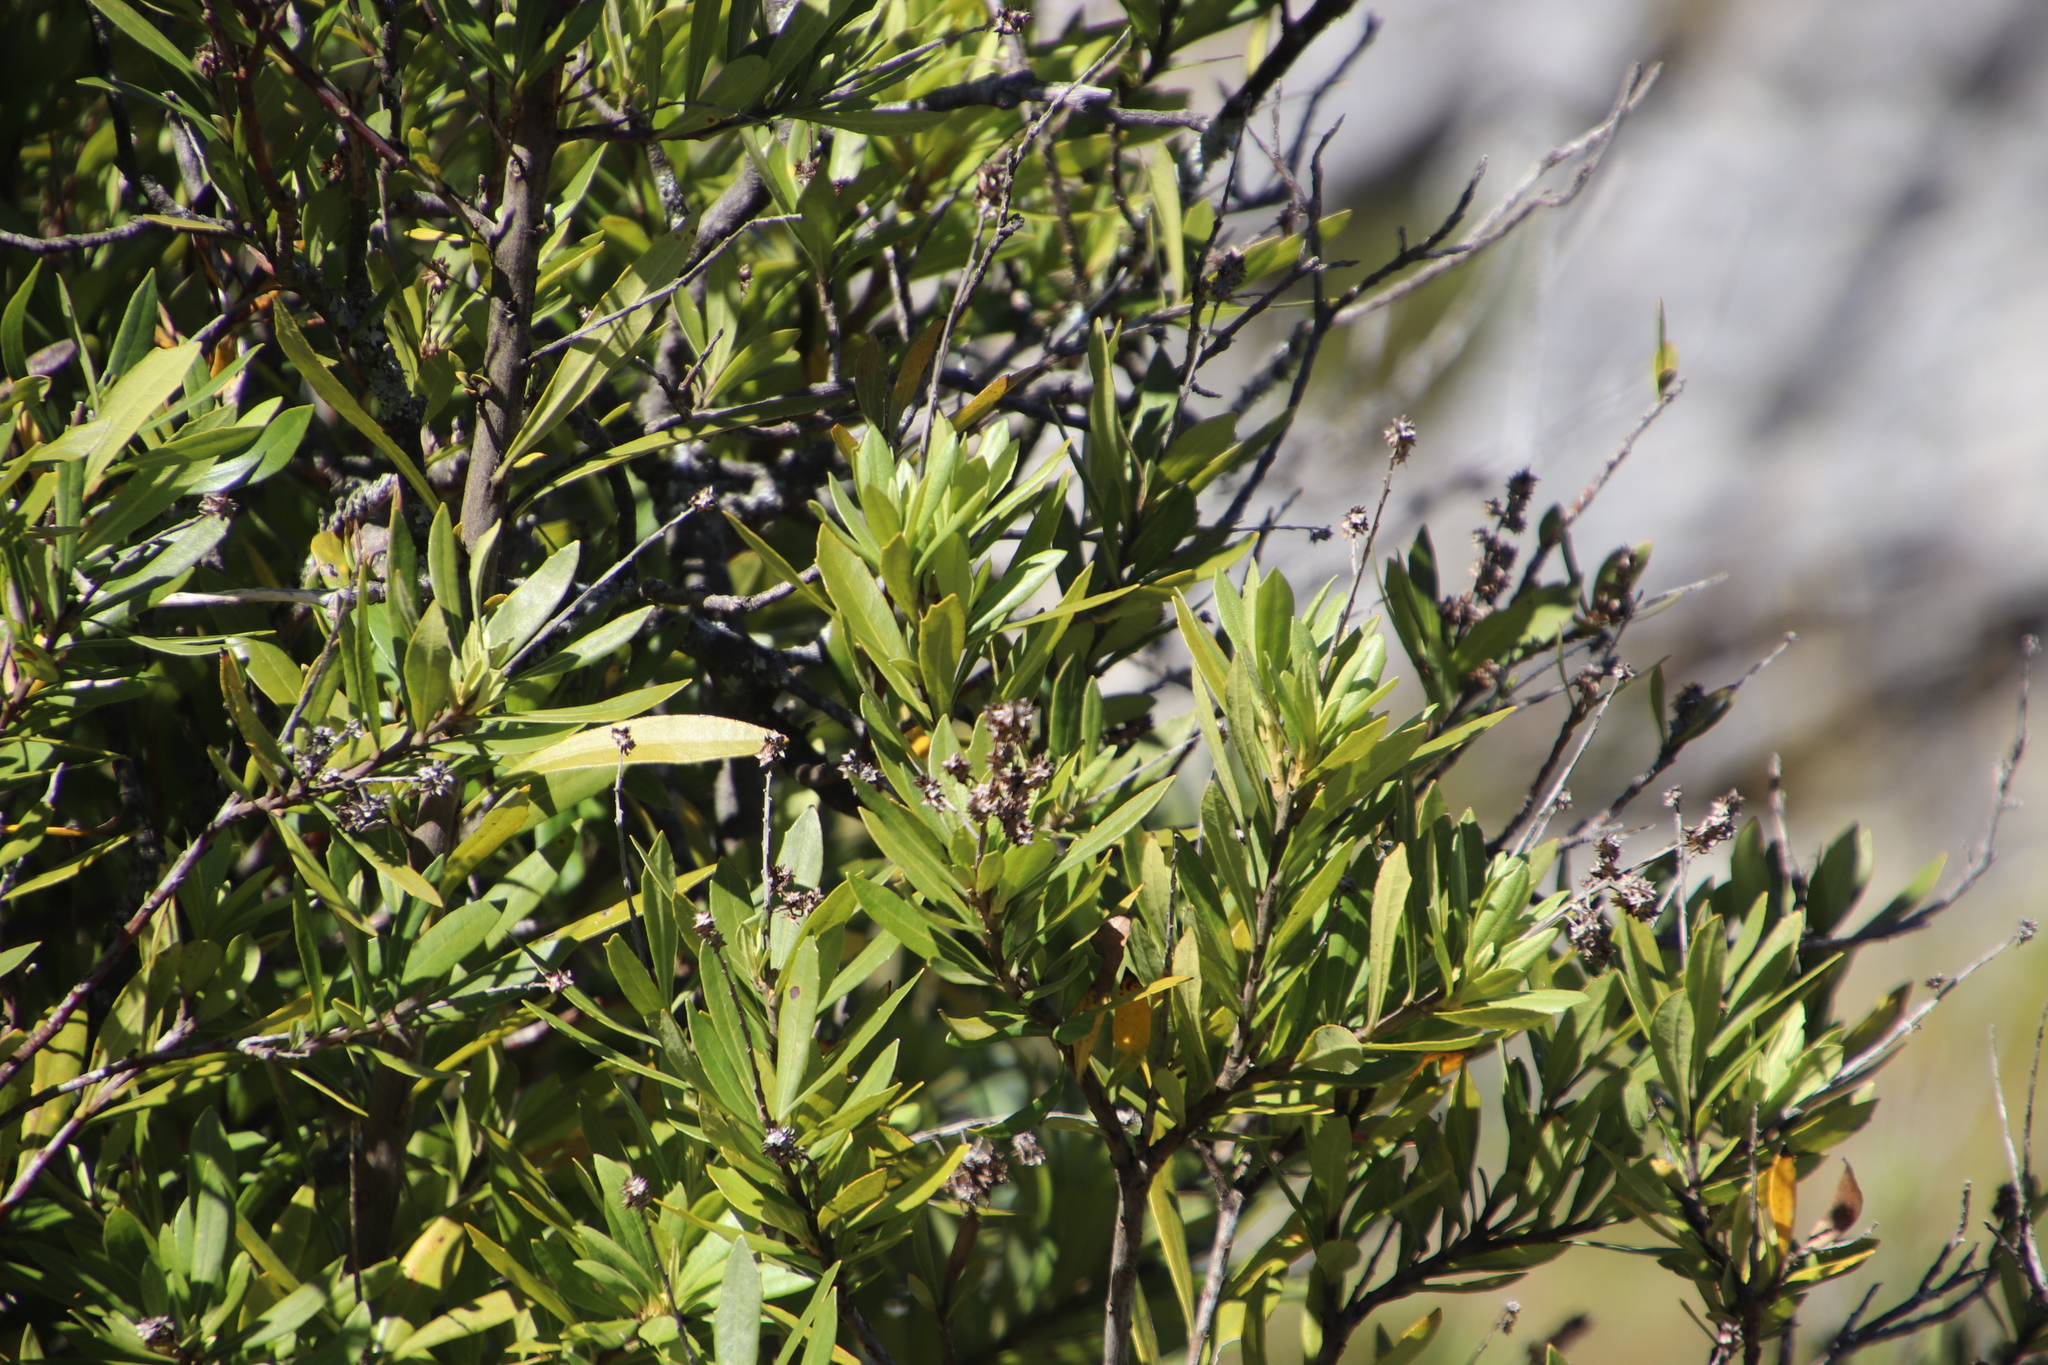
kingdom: Plantae
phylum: Tracheophyta
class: Magnoliopsida
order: Asterales
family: Asteraceae
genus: Brachylaena
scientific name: Brachylaena neriifolia
